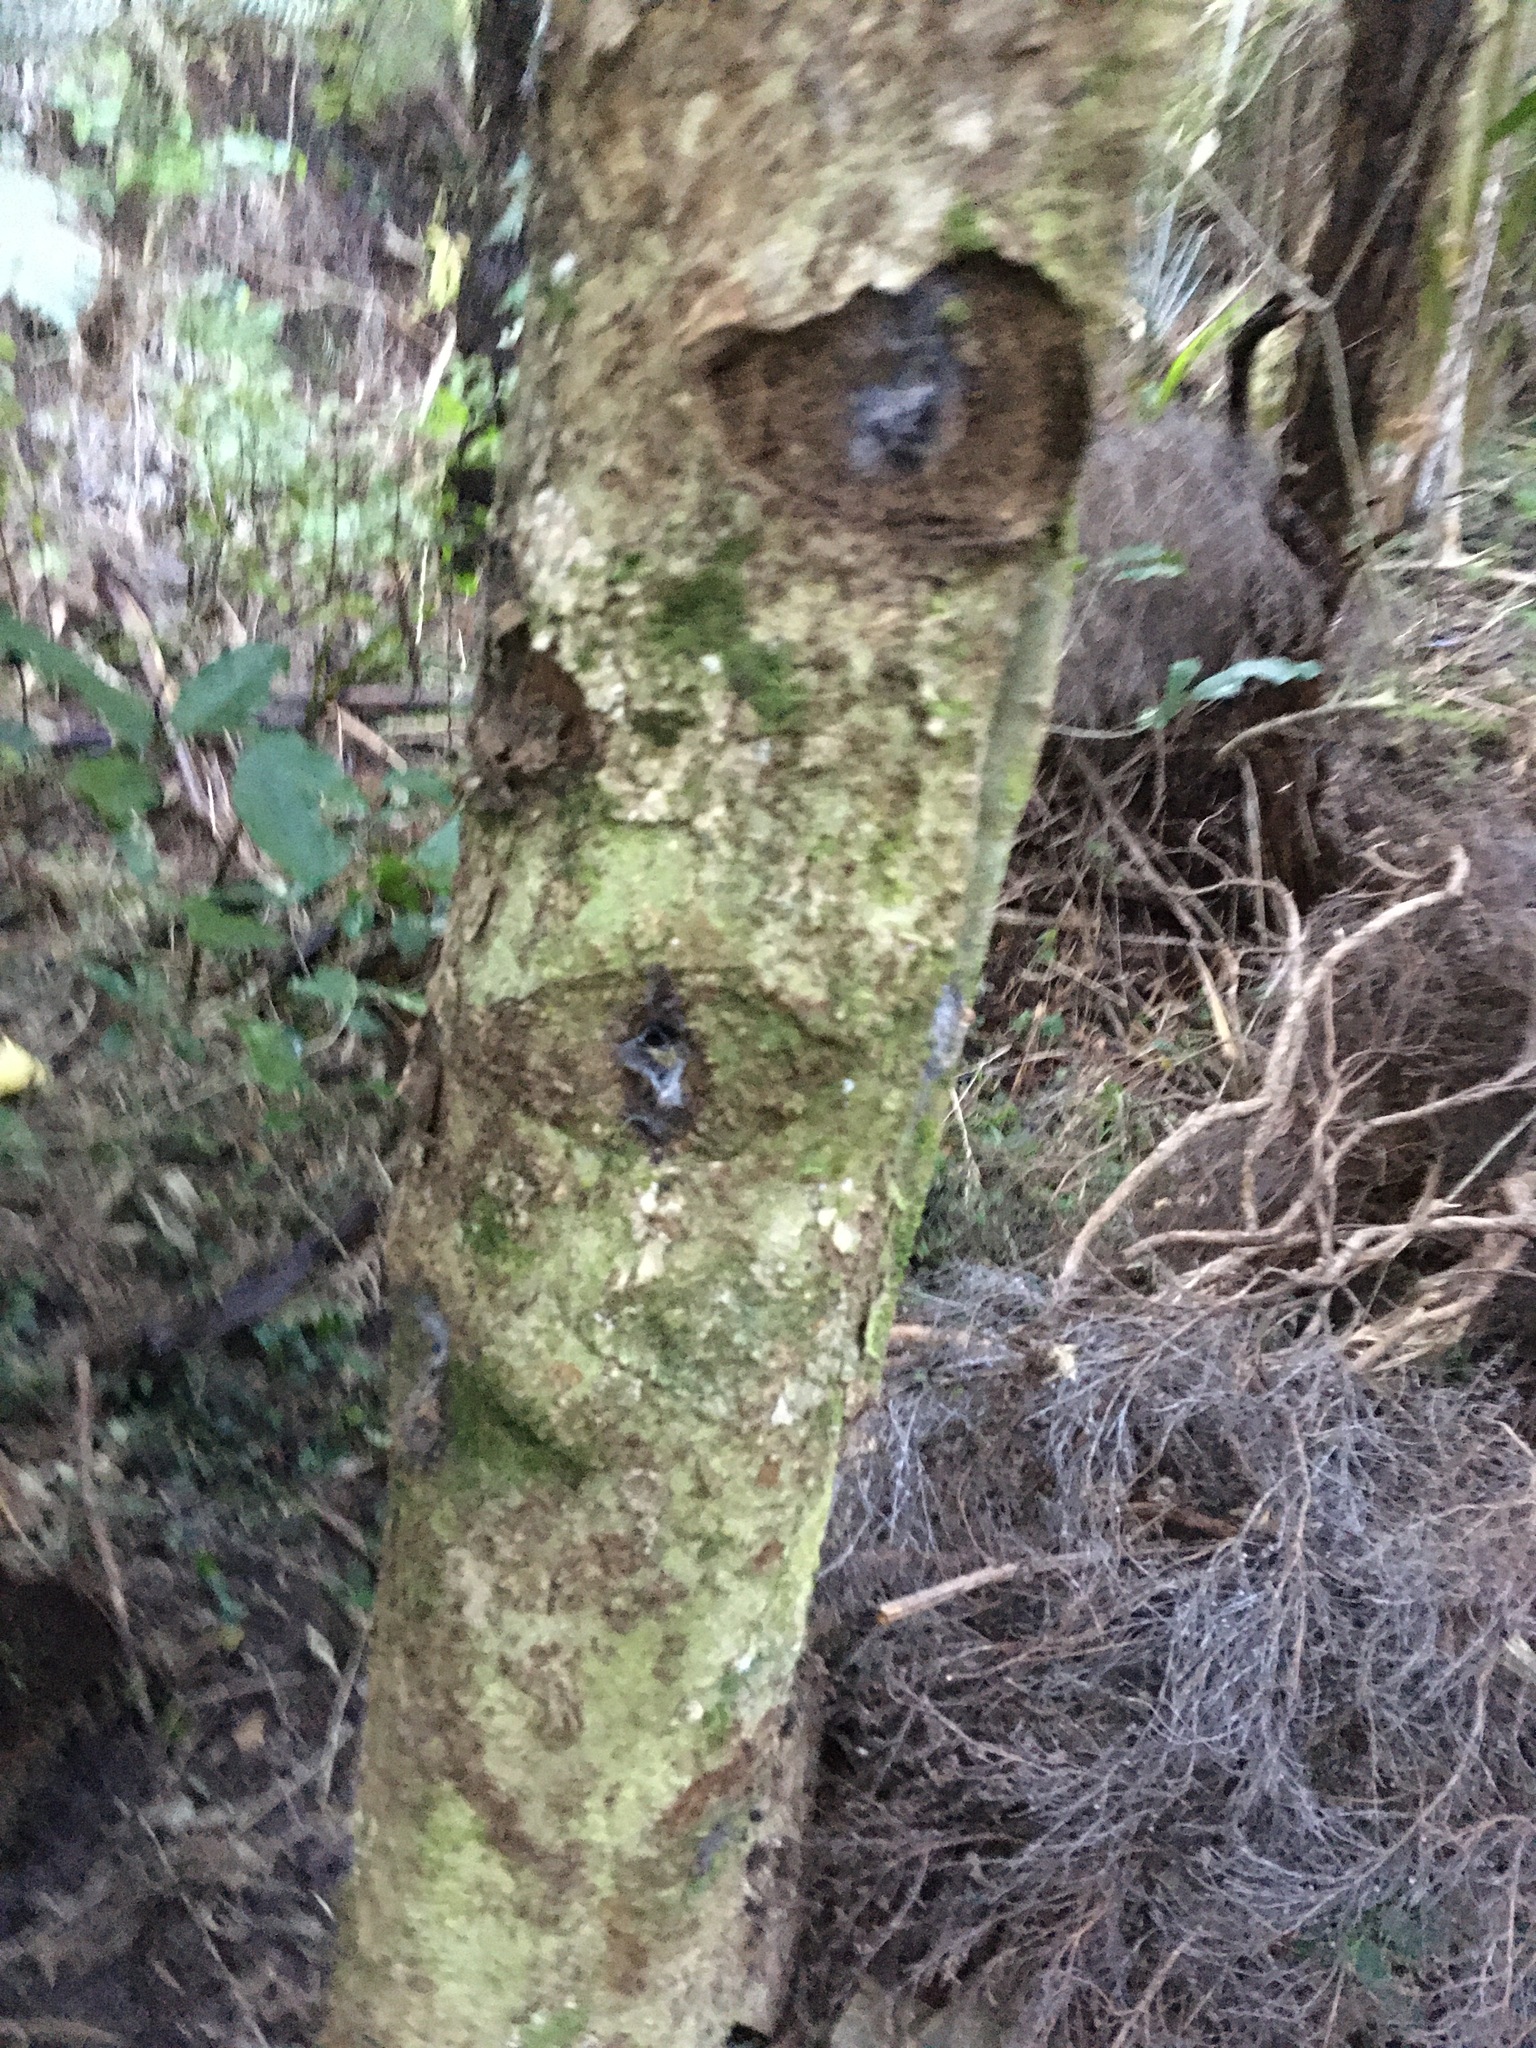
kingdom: Plantae
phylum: Tracheophyta
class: Magnoliopsida
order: Asterales
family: Rousseaceae
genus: Carpodetus
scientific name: Carpodetus serratus
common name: White mapau
